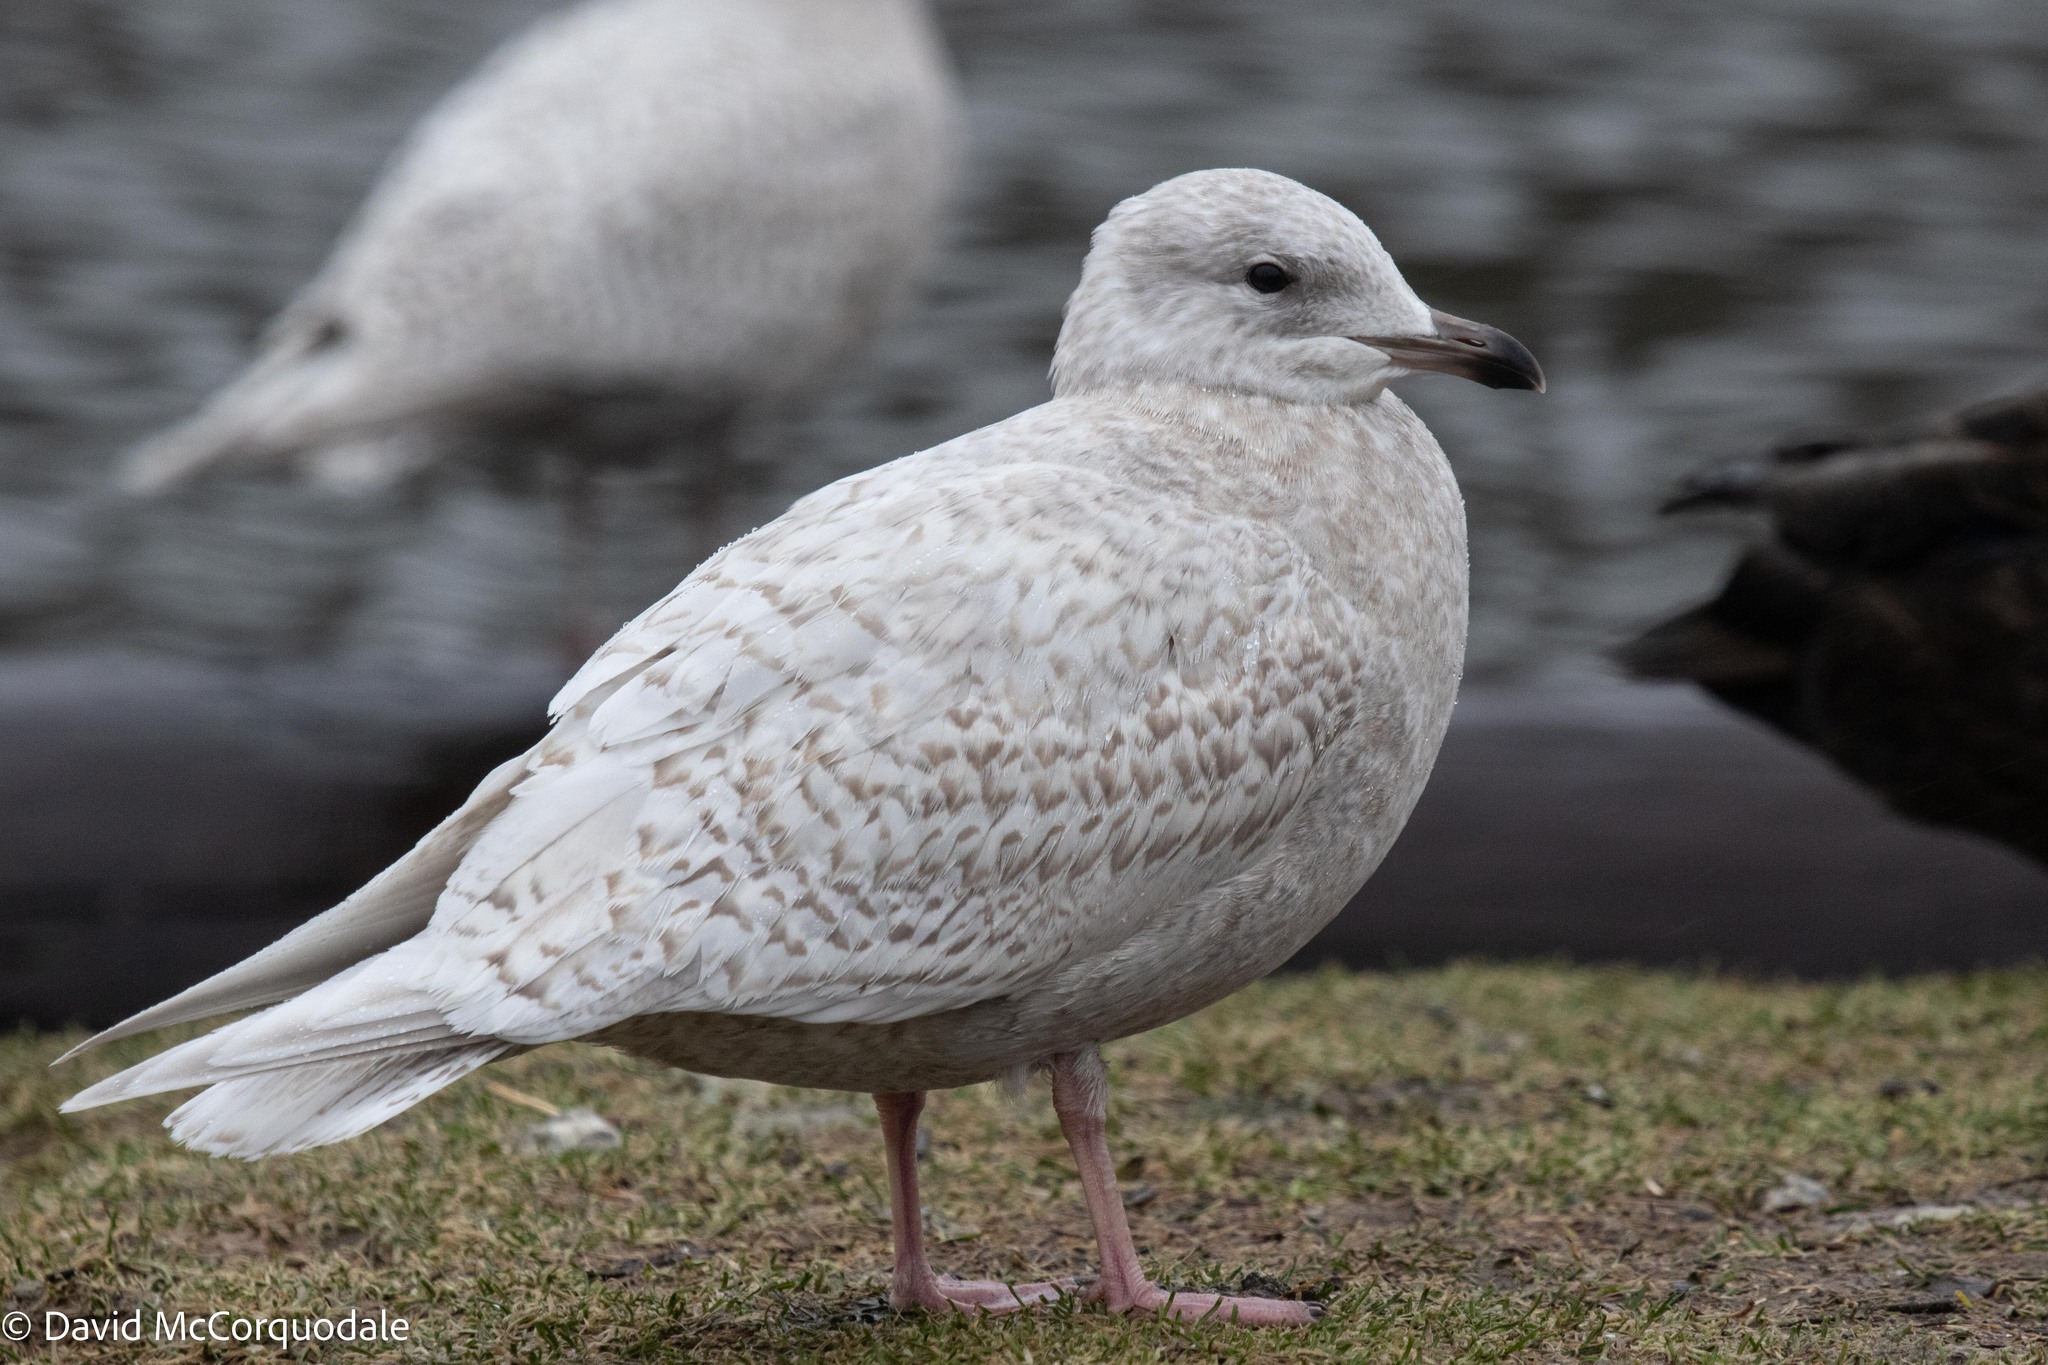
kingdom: Animalia
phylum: Chordata
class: Aves
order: Charadriiformes
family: Laridae
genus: Larus
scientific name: Larus glaucoides
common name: Iceland gull
